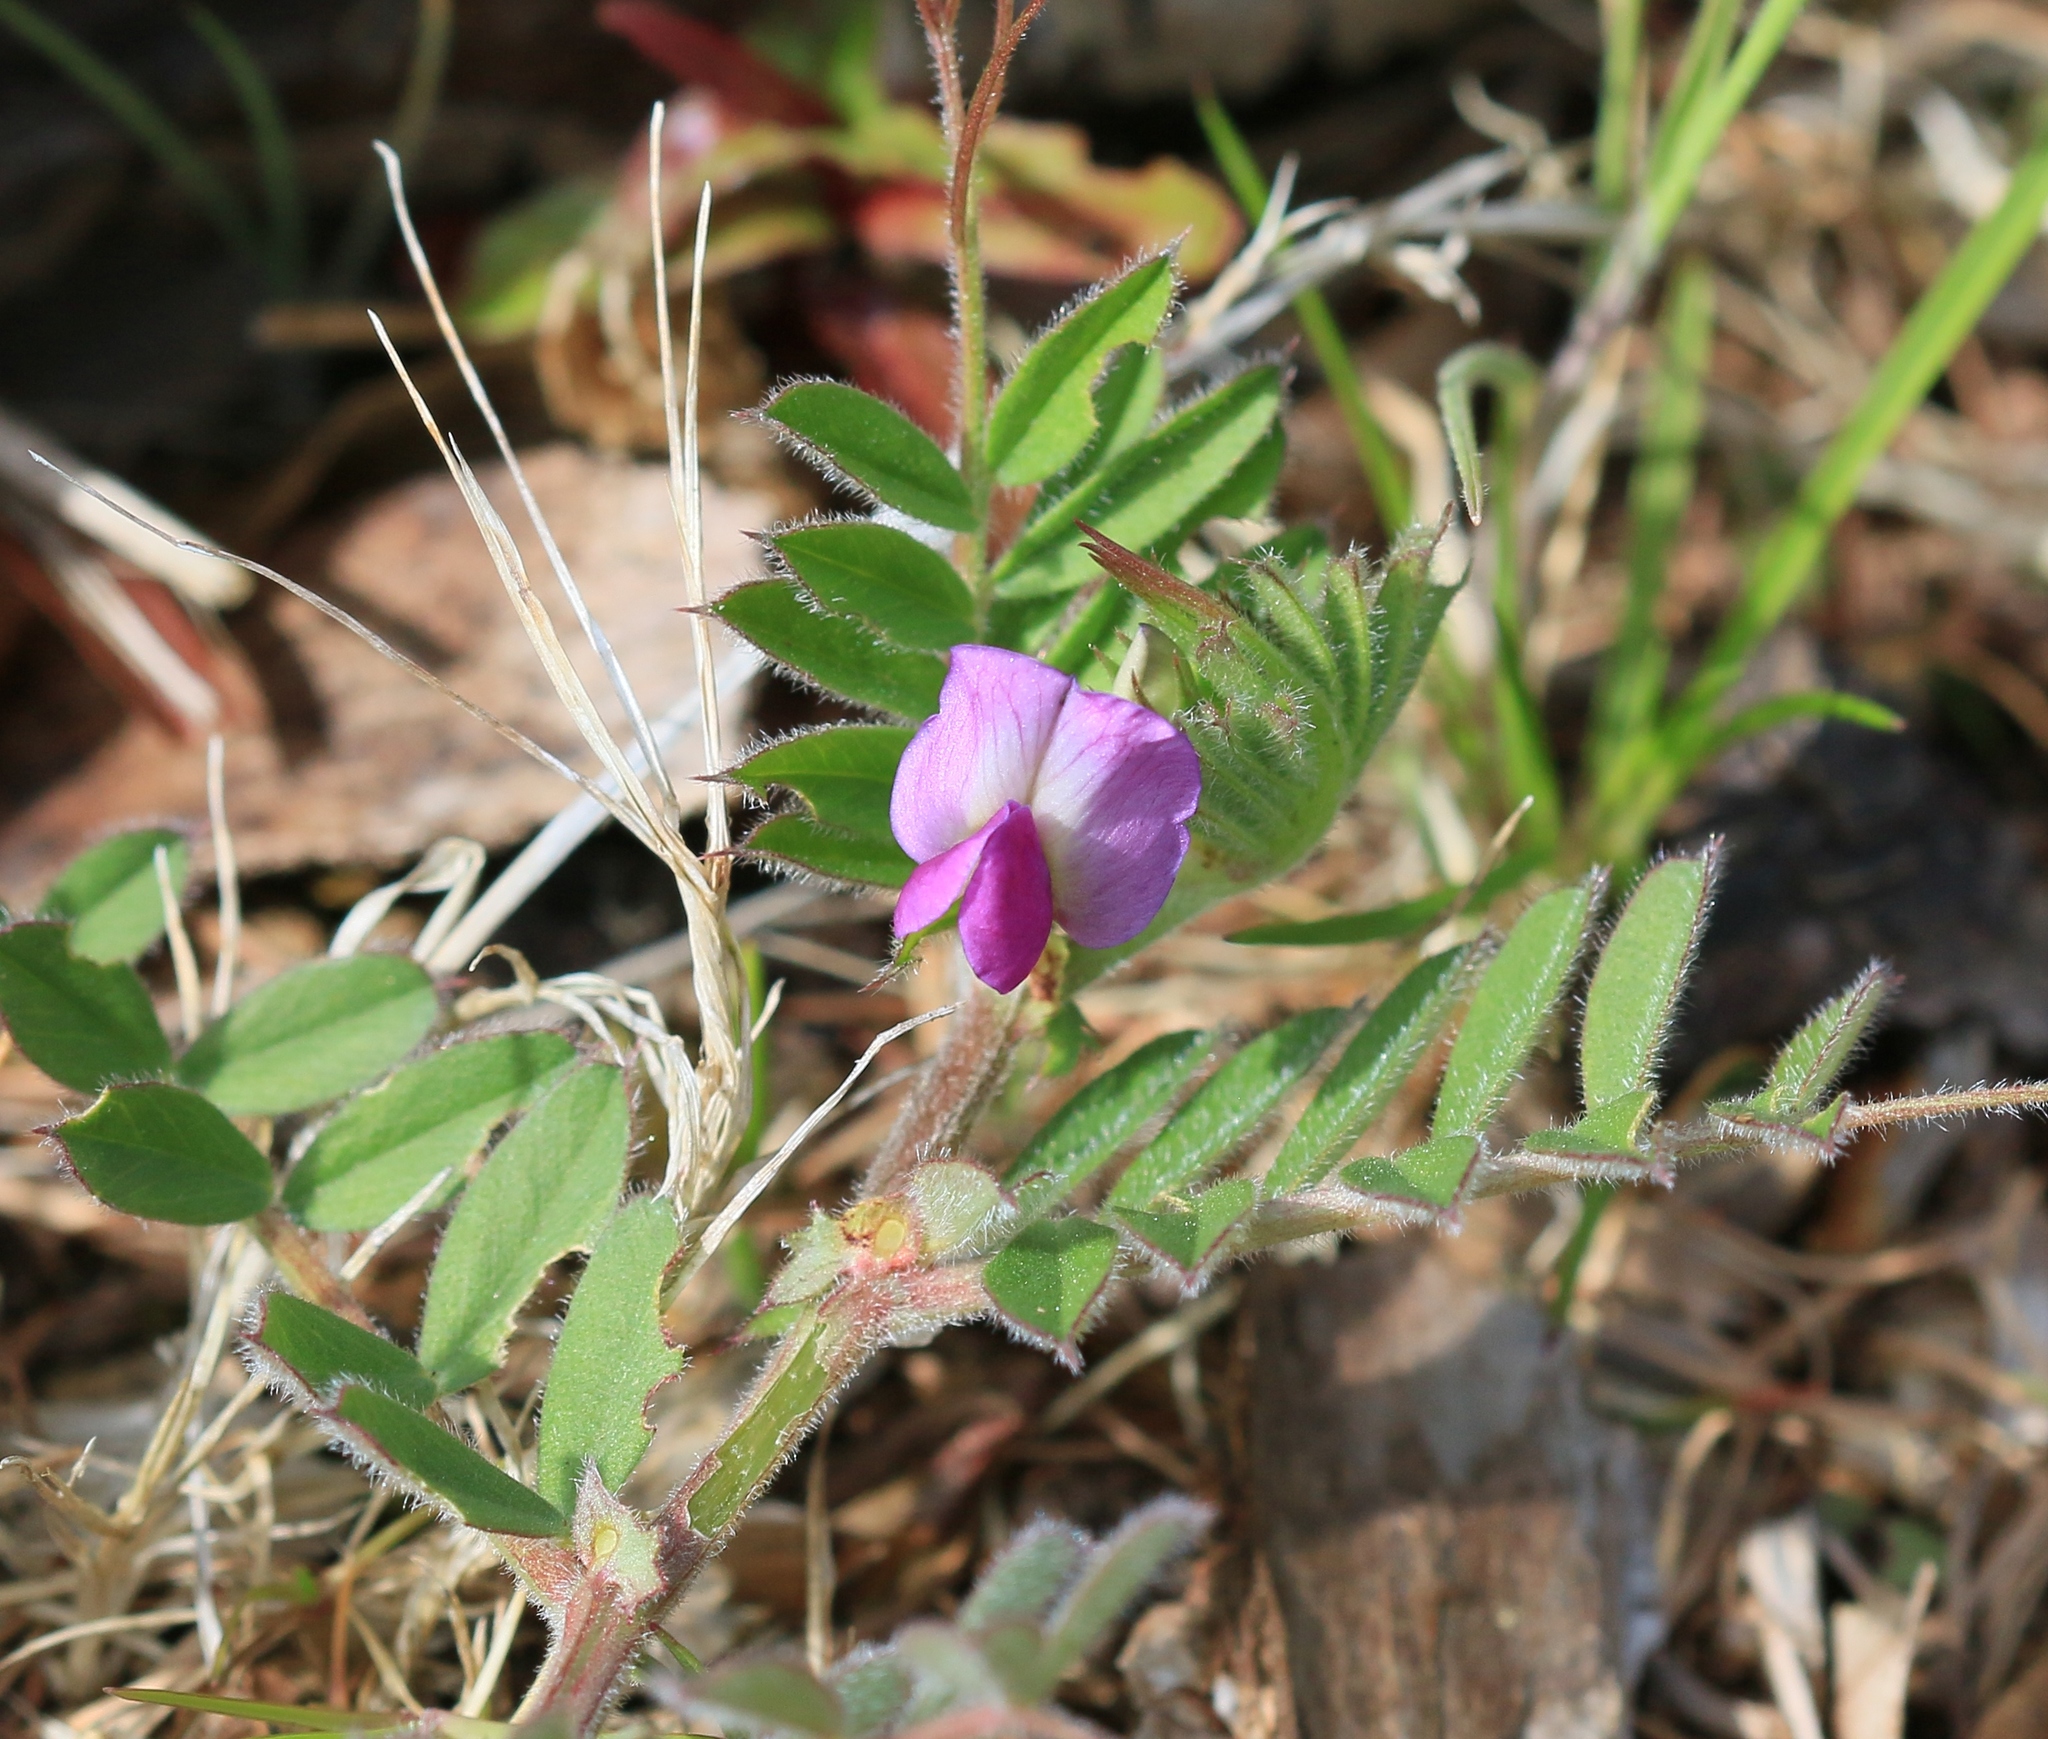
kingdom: Plantae
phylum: Tracheophyta
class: Magnoliopsida
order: Fabales
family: Fabaceae
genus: Vicia
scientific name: Vicia sativa
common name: Garden vetch
